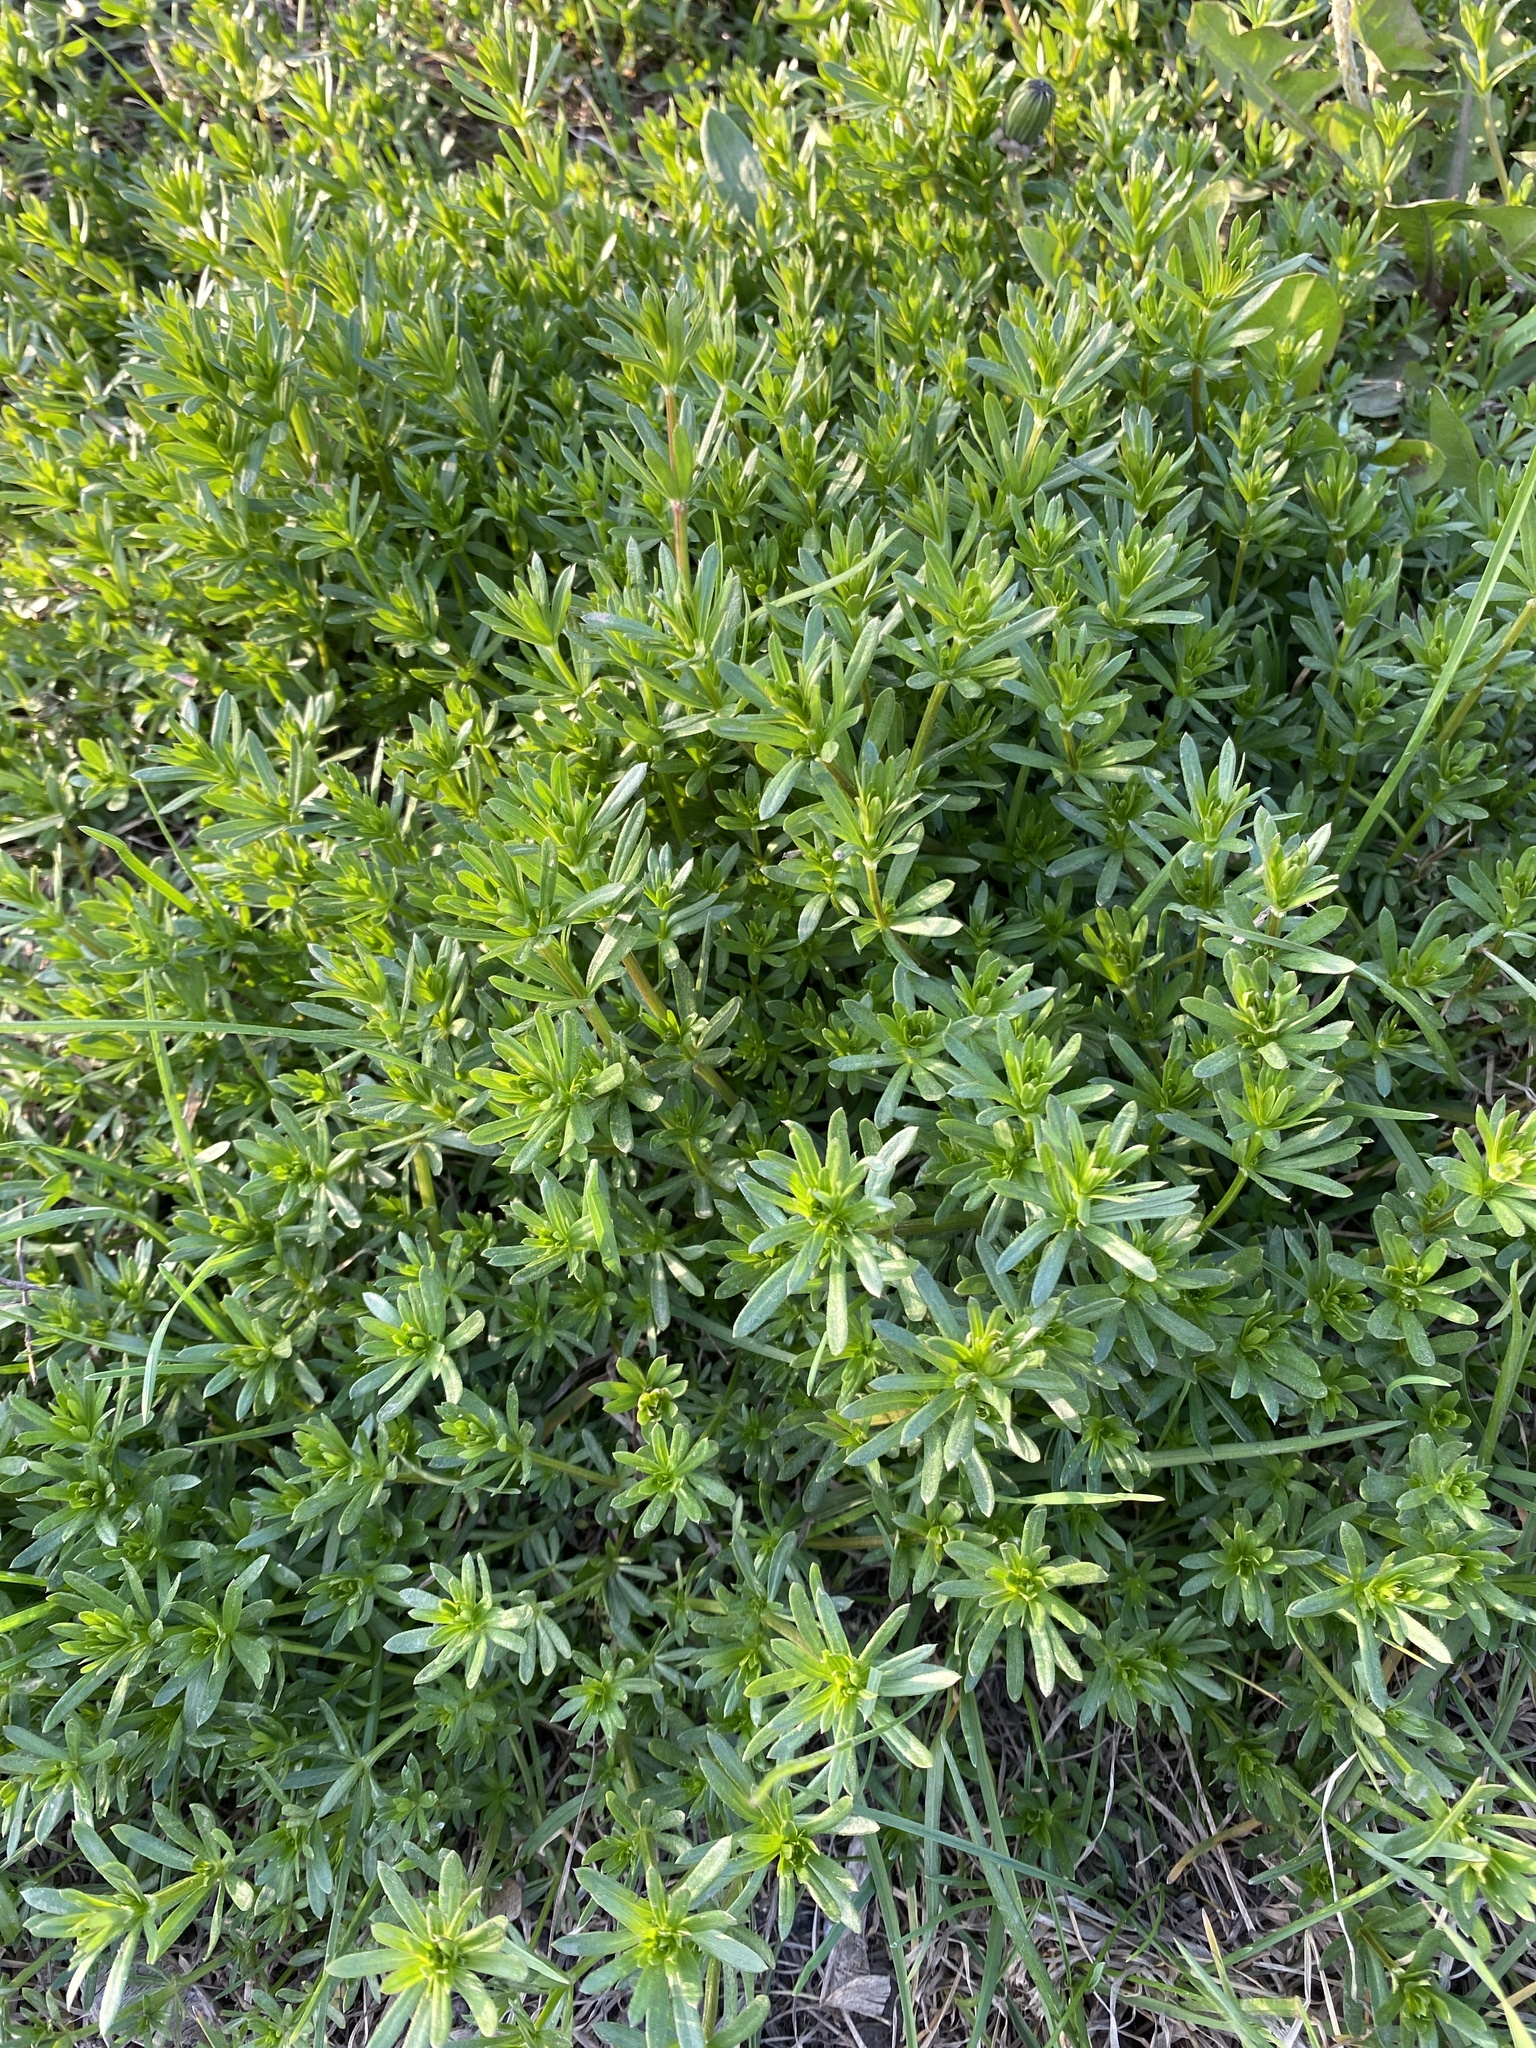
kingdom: Plantae
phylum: Tracheophyta
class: Magnoliopsida
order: Gentianales
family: Rubiaceae
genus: Galium
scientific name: Galium mollugo
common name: Hedge bedstraw
